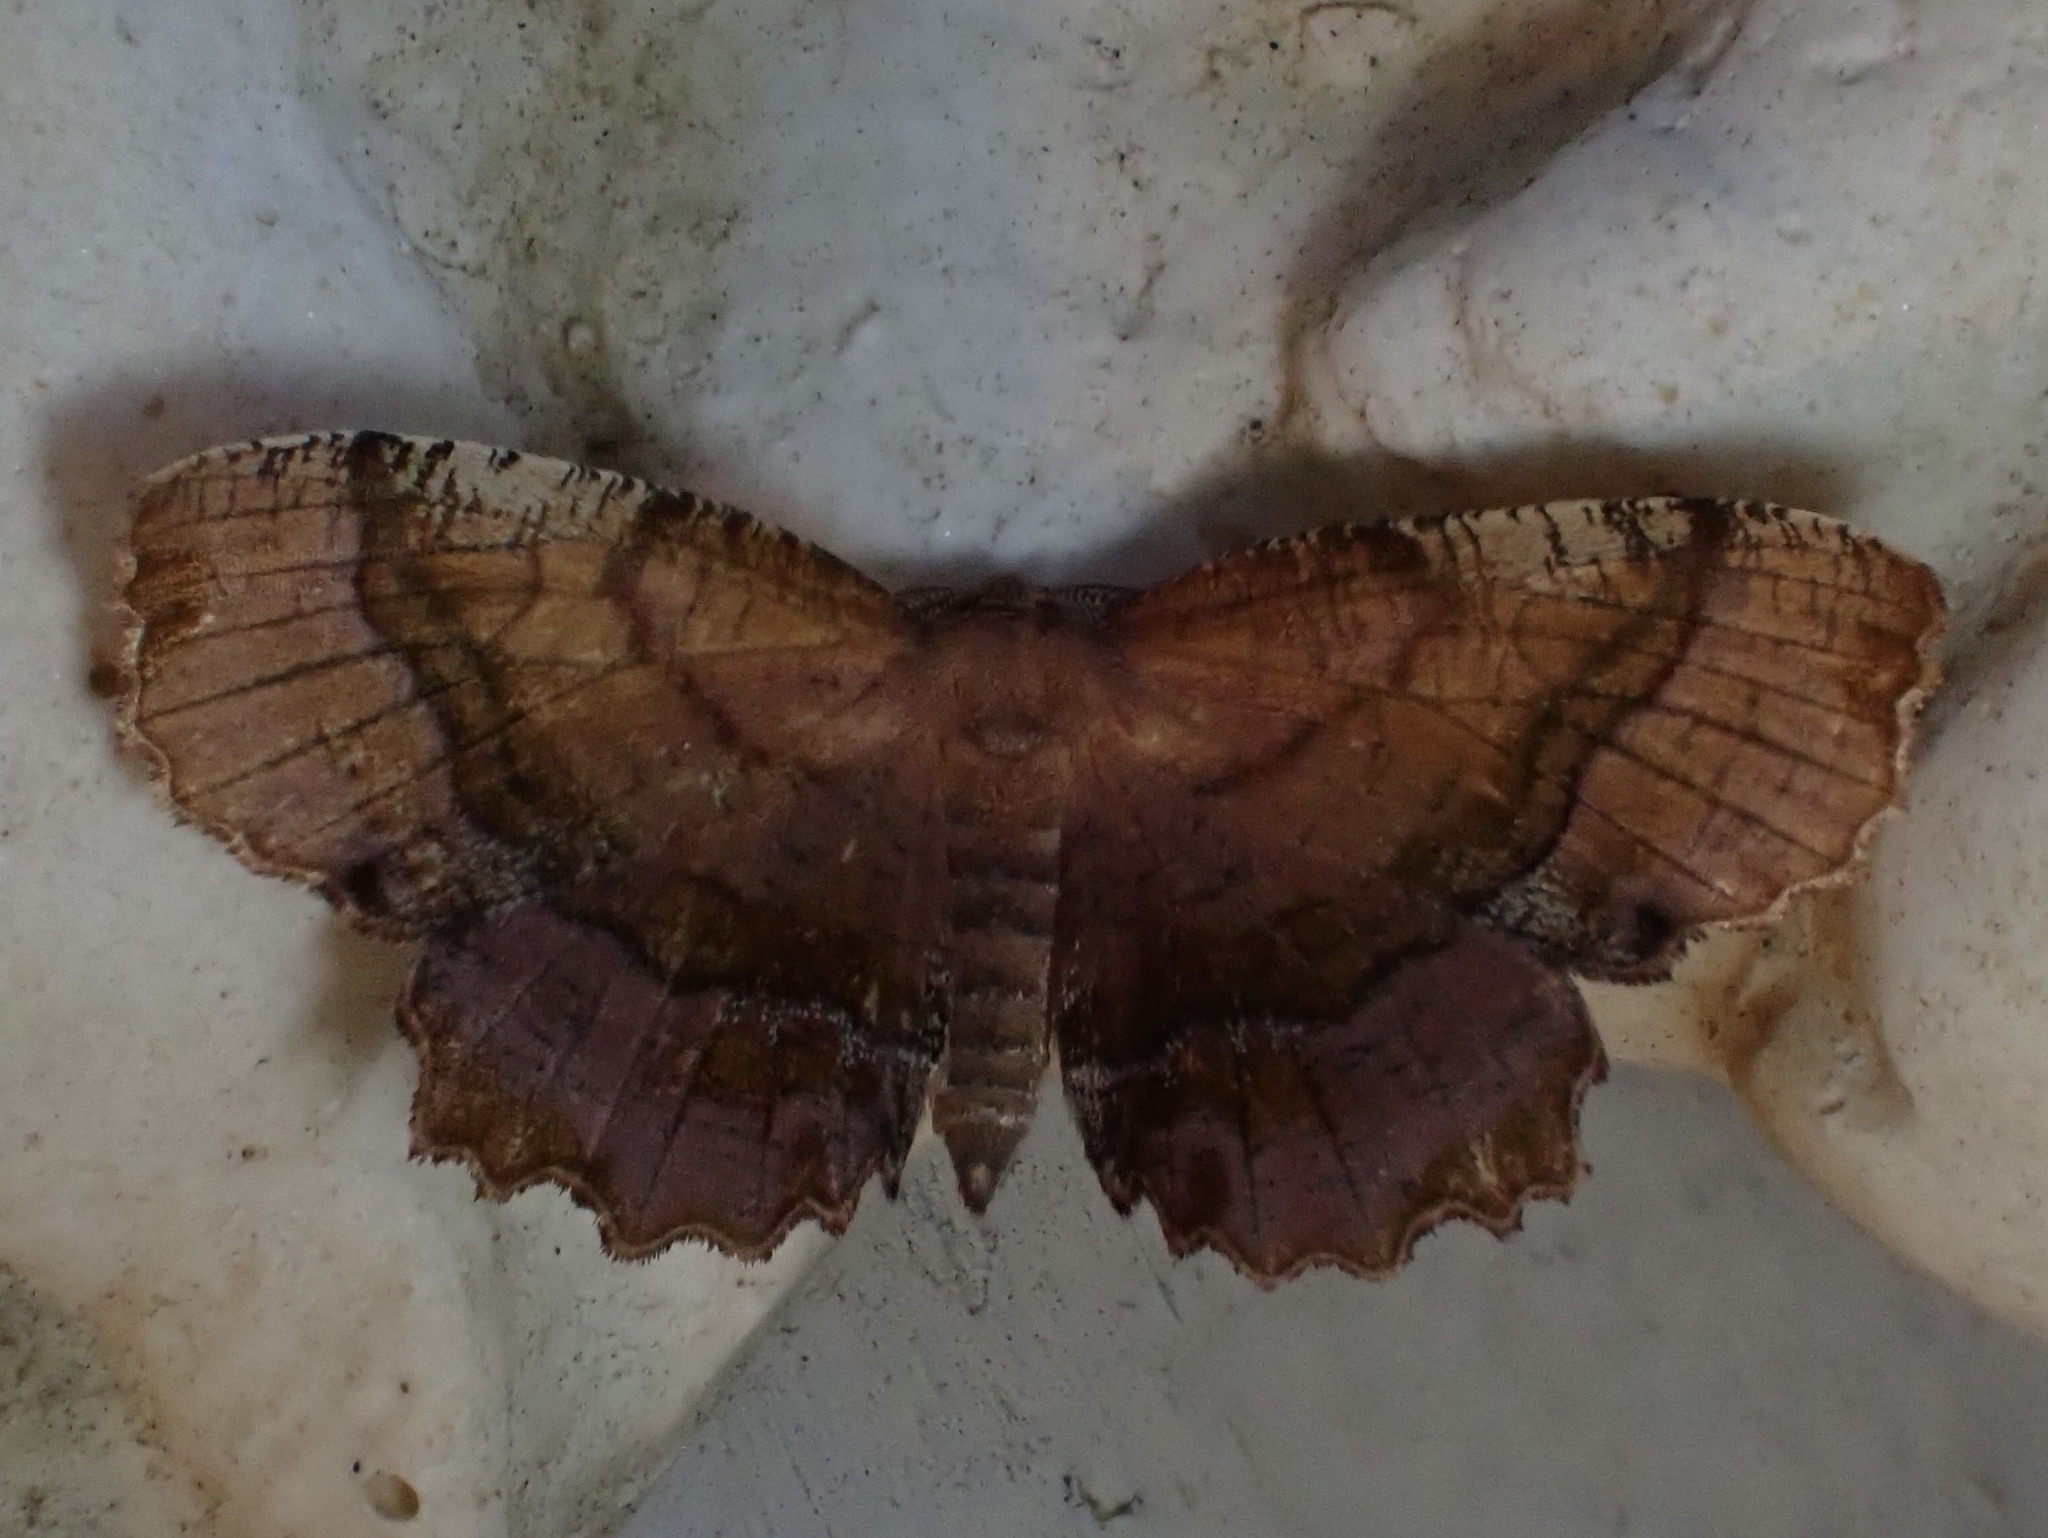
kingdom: Animalia
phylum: Arthropoda
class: Insecta
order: Lepidoptera
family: Geometridae
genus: Cepphis
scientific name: Cepphis armataria
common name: Scallop moth
